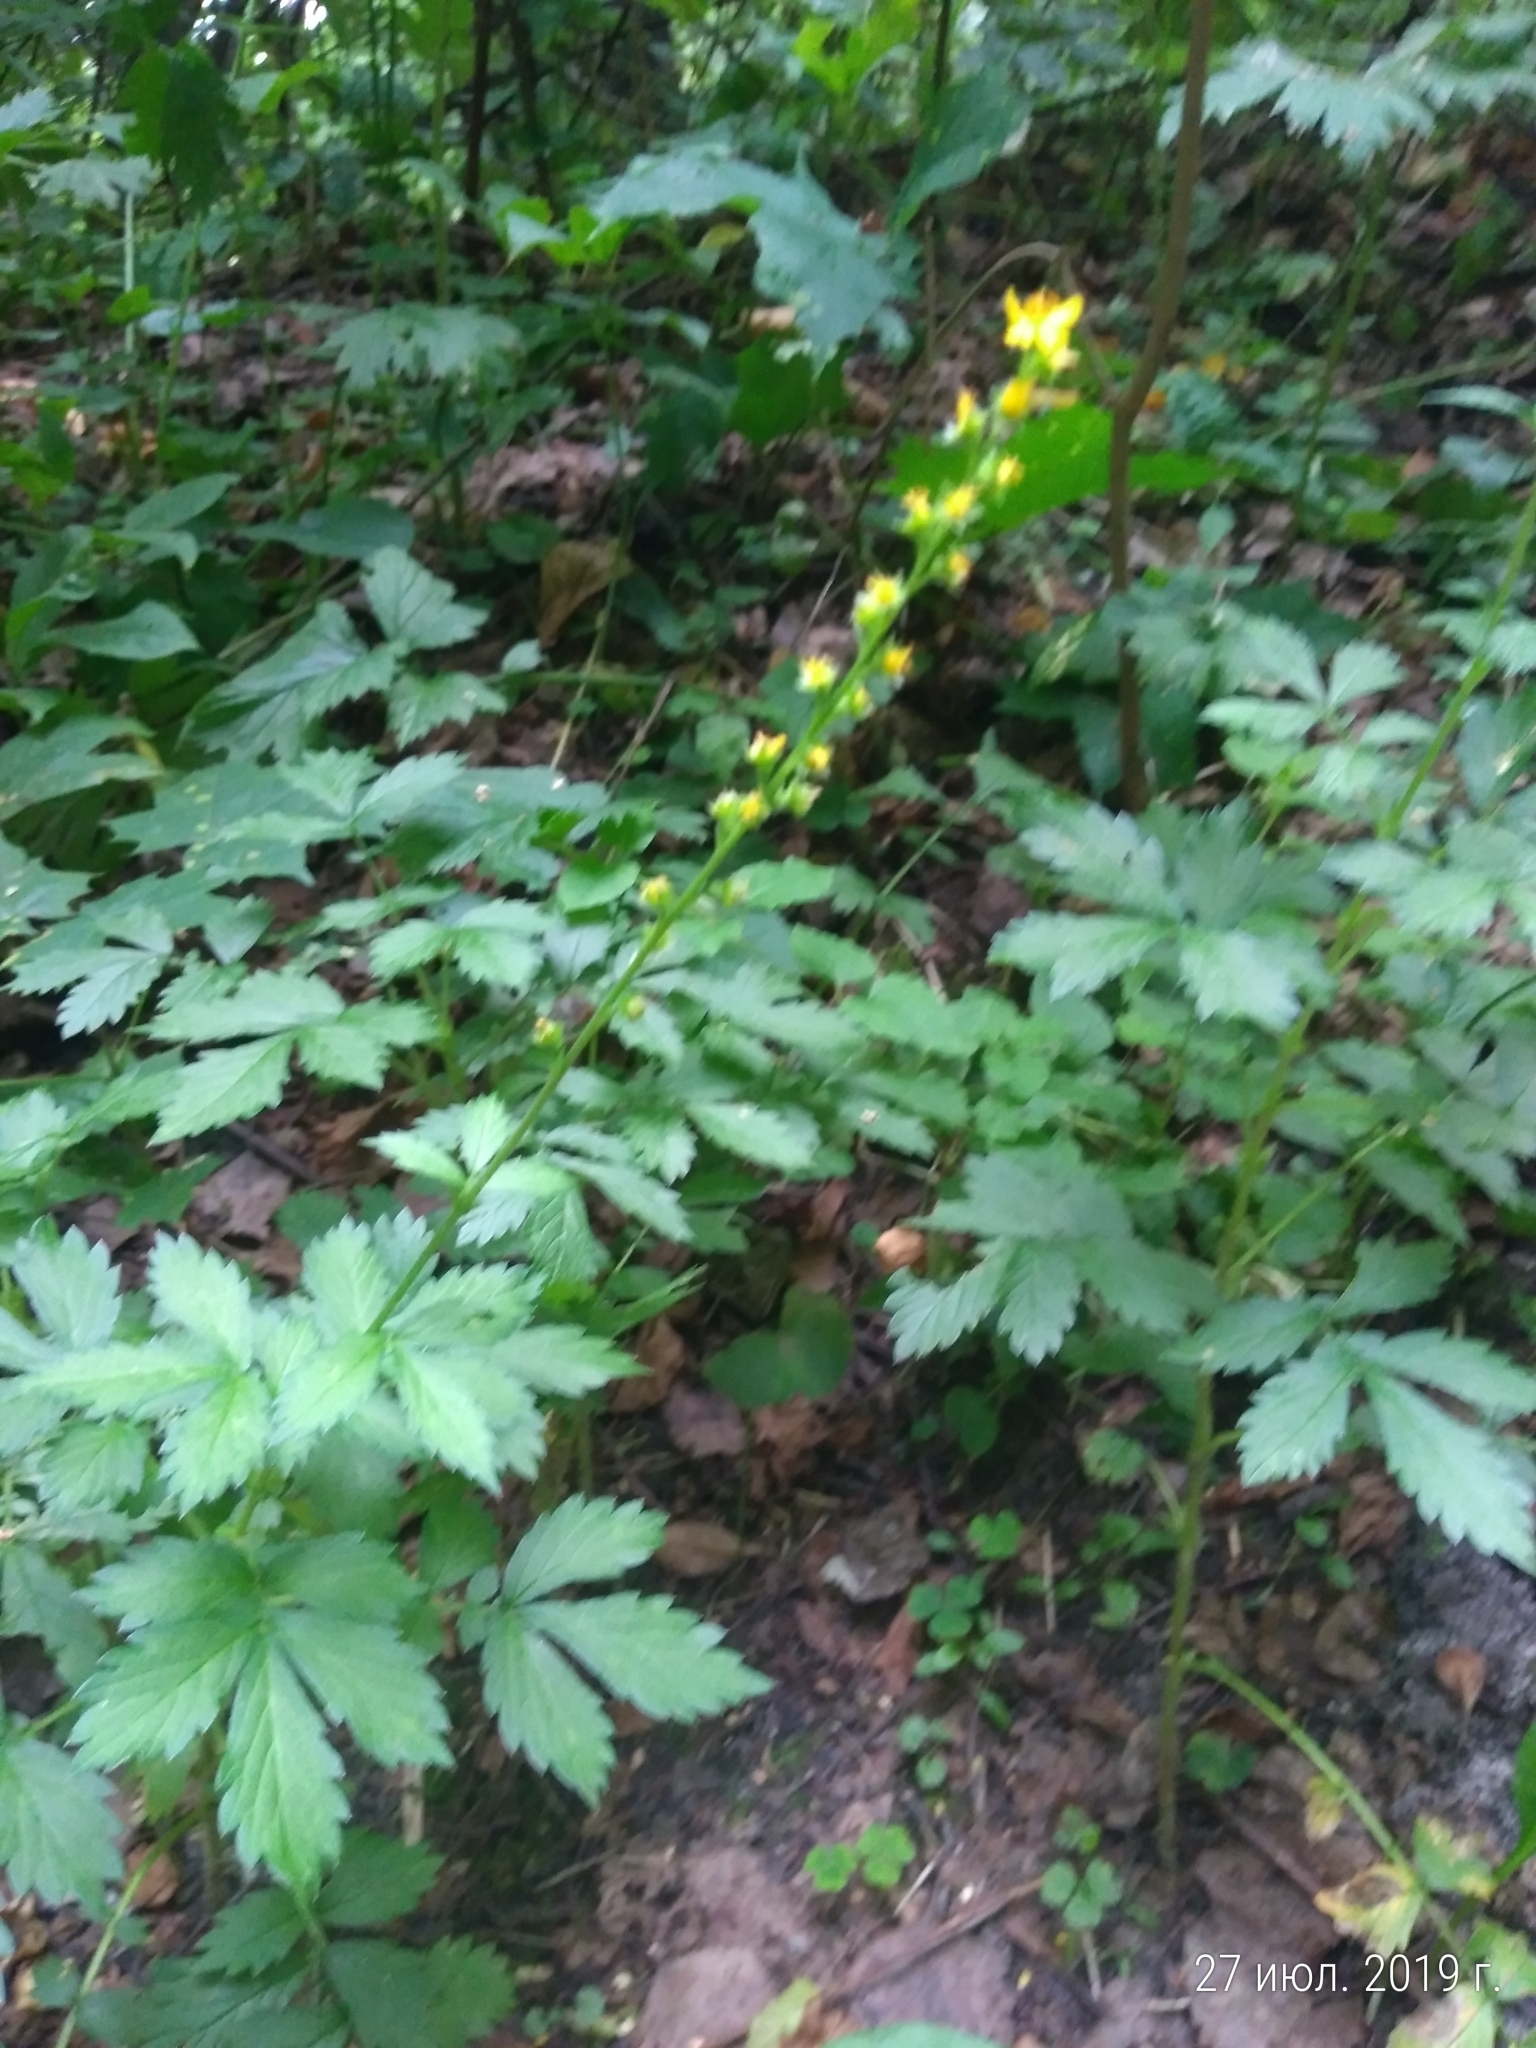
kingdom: Plantae
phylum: Tracheophyta
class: Magnoliopsida
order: Rosales
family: Rosaceae
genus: Agrimonia
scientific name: Agrimonia pilosa
